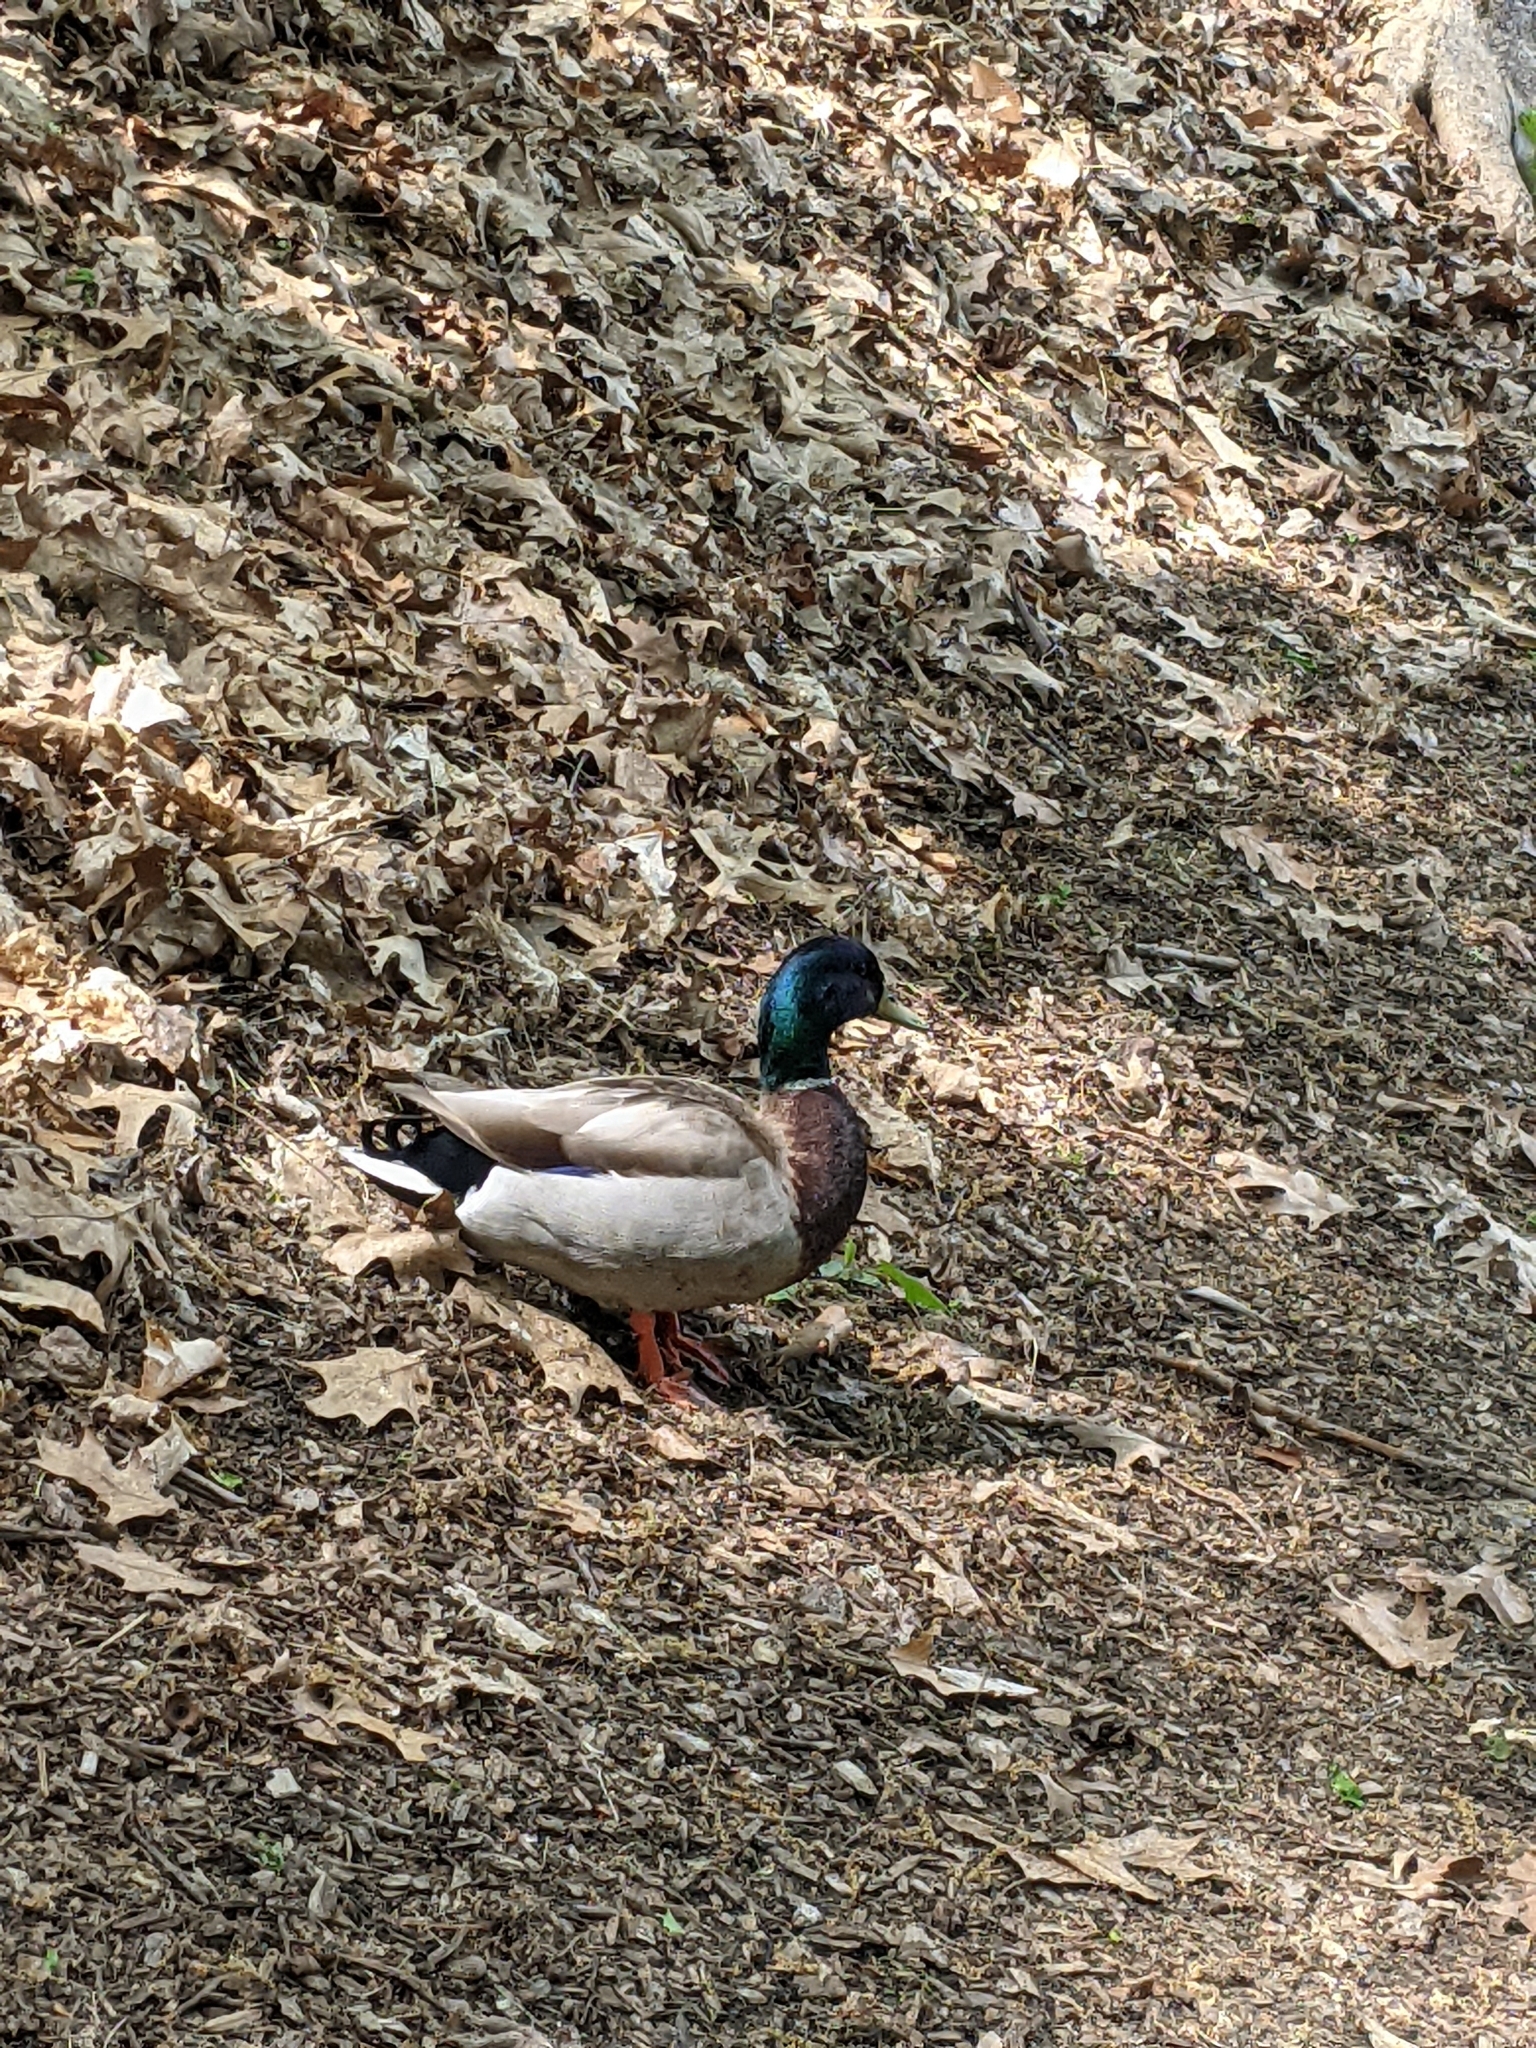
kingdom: Animalia
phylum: Chordata
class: Aves
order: Anseriformes
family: Anatidae
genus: Anas
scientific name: Anas platyrhynchos
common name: Mallard
